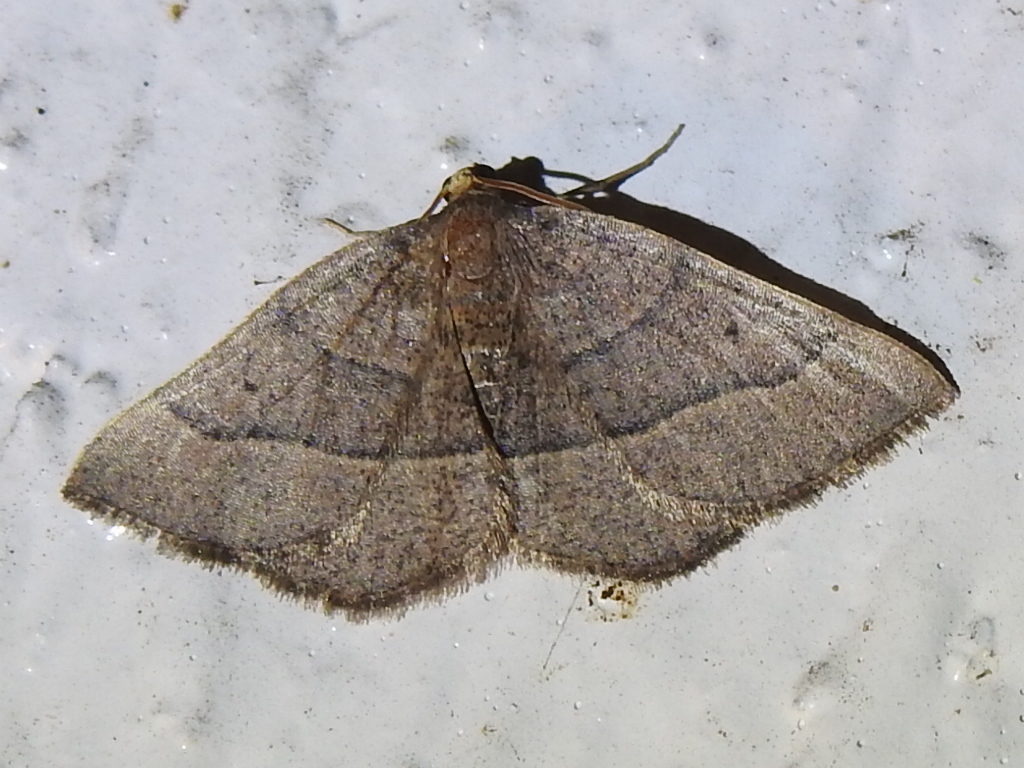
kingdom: Animalia
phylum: Arthropoda
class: Insecta
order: Lepidoptera
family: Geometridae
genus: Episemasia
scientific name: Episemasia cervinaria
